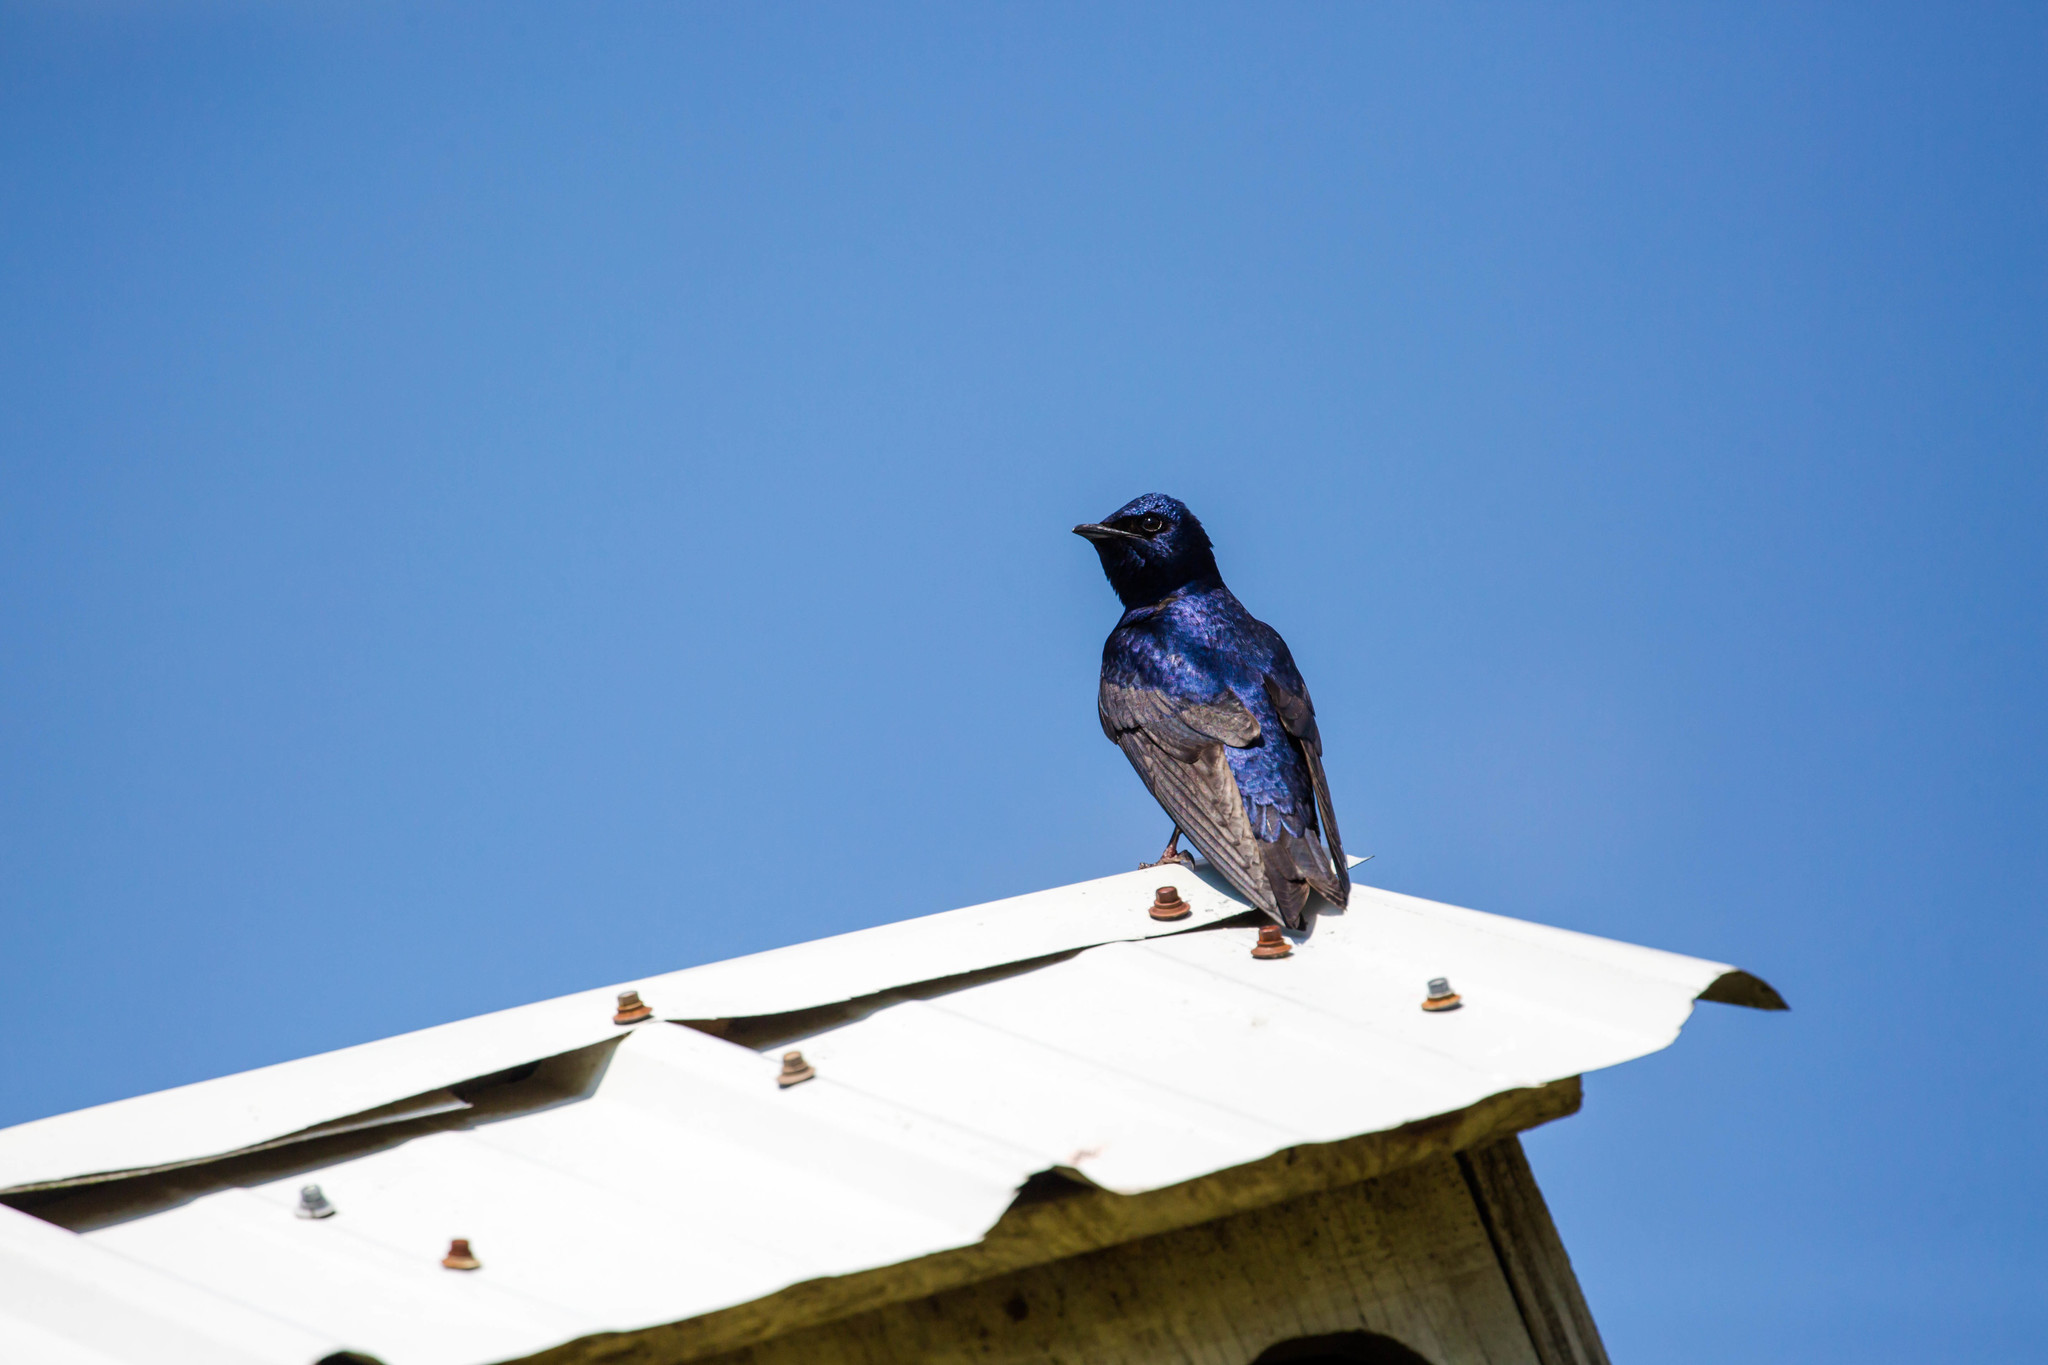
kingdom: Animalia
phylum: Chordata
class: Aves
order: Passeriformes
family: Hirundinidae
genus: Progne
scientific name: Progne subis
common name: Purple martin
